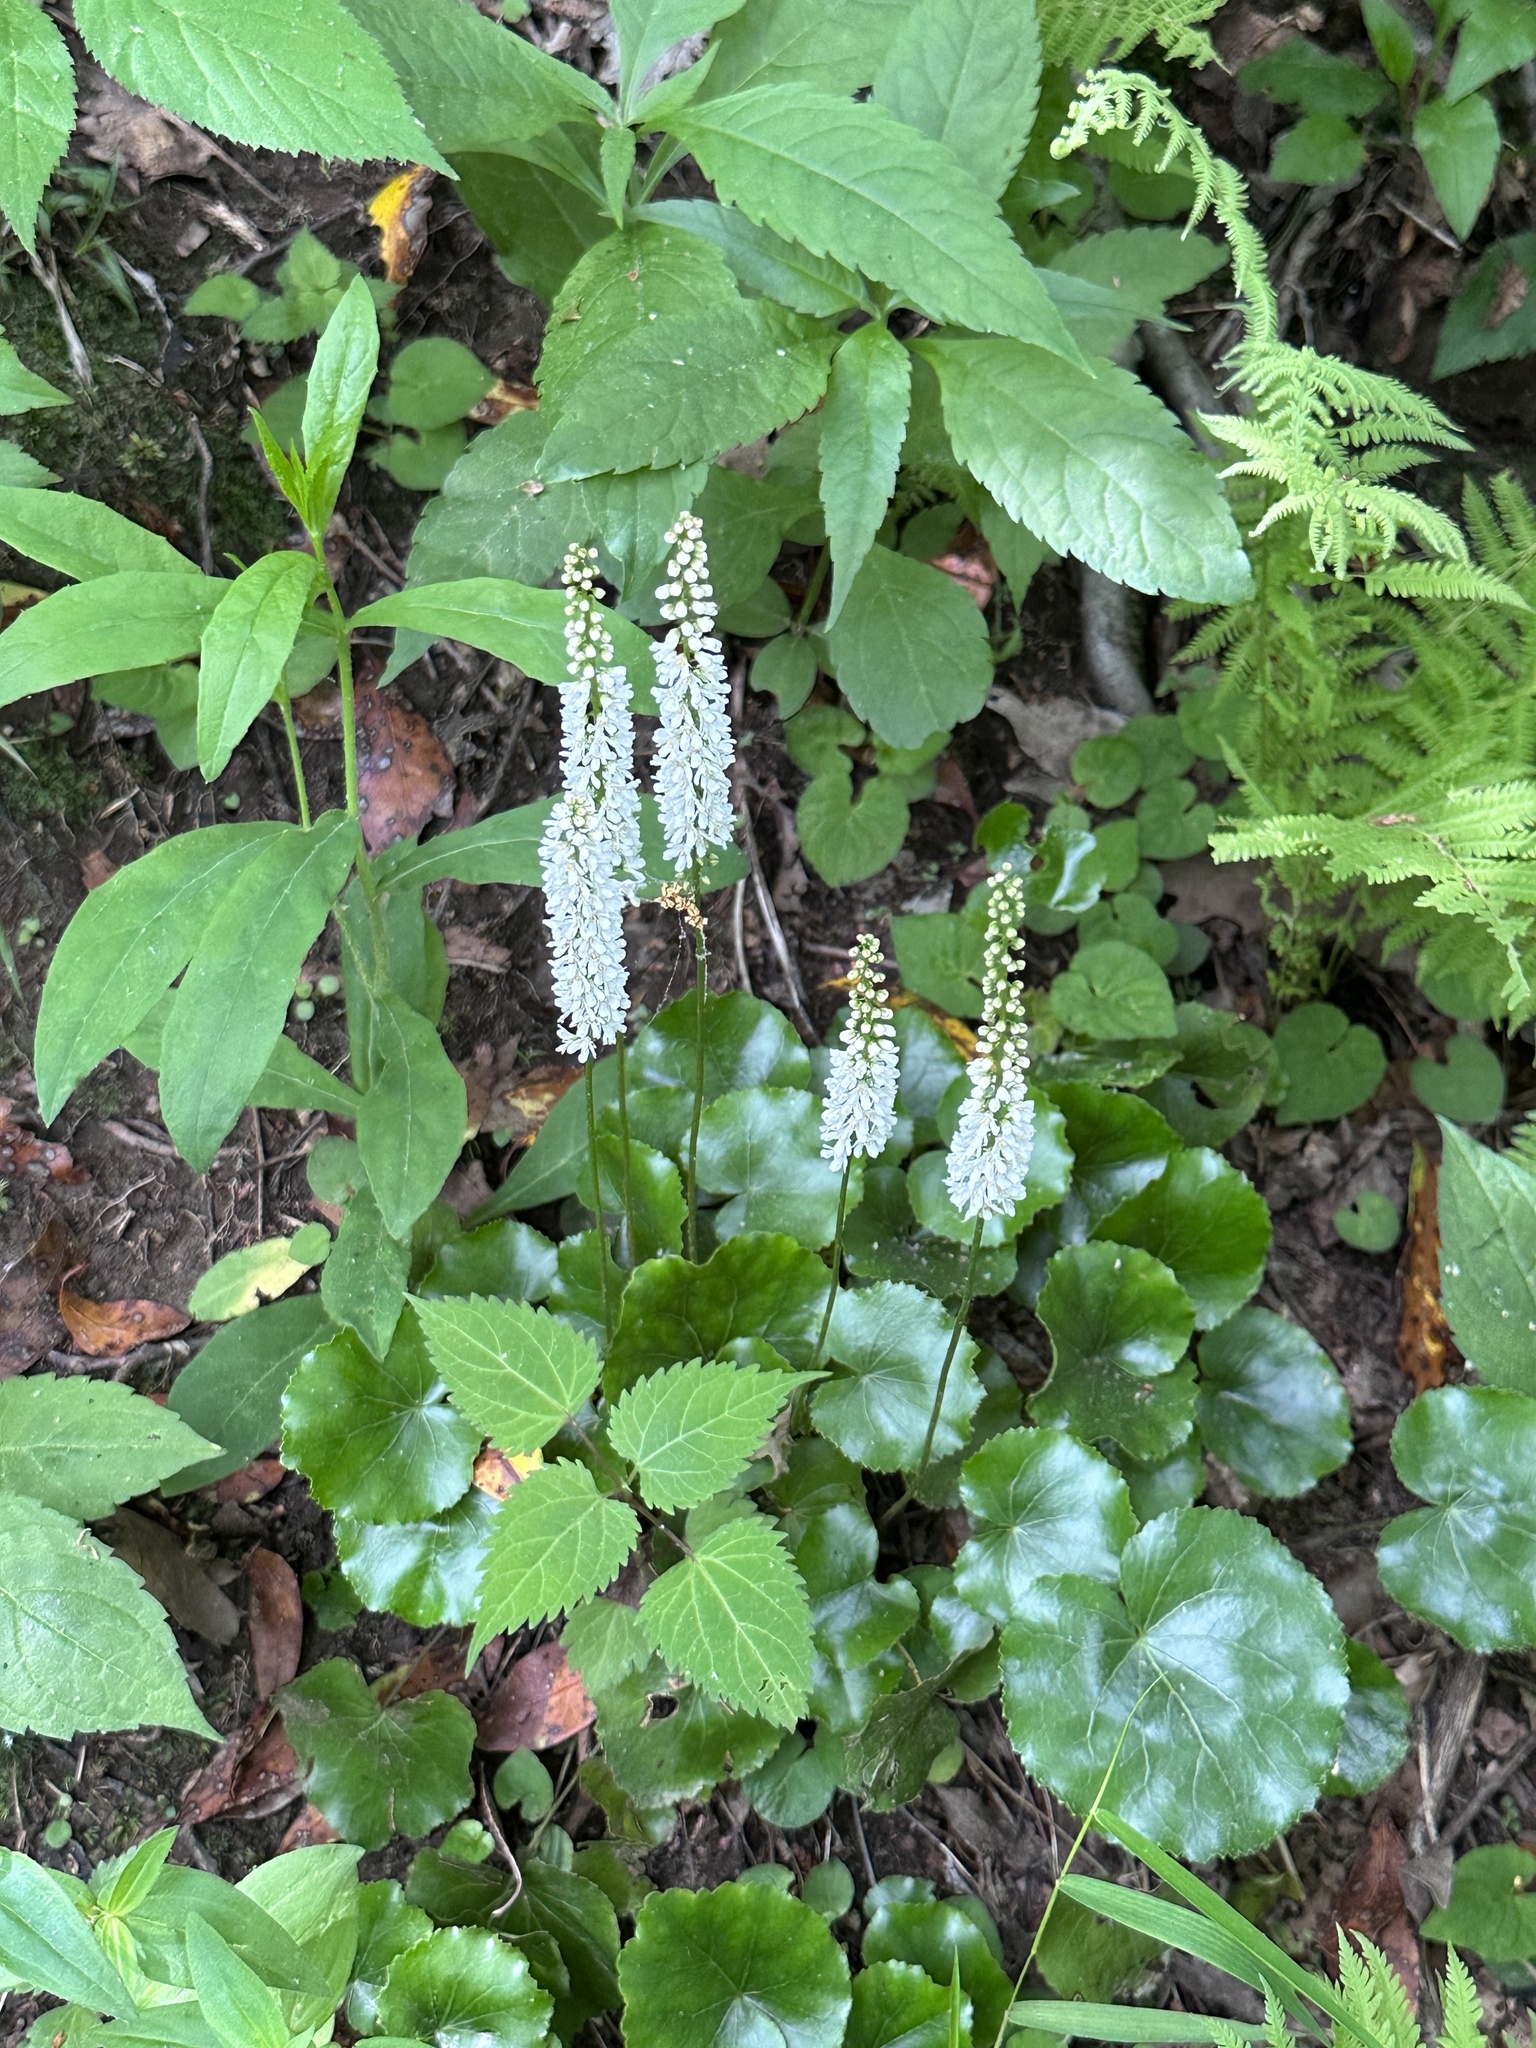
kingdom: Plantae
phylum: Tracheophyta
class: Magnoliopsida
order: Ericales
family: Diapensiaceae
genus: Galax
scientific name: Galax urceolata
